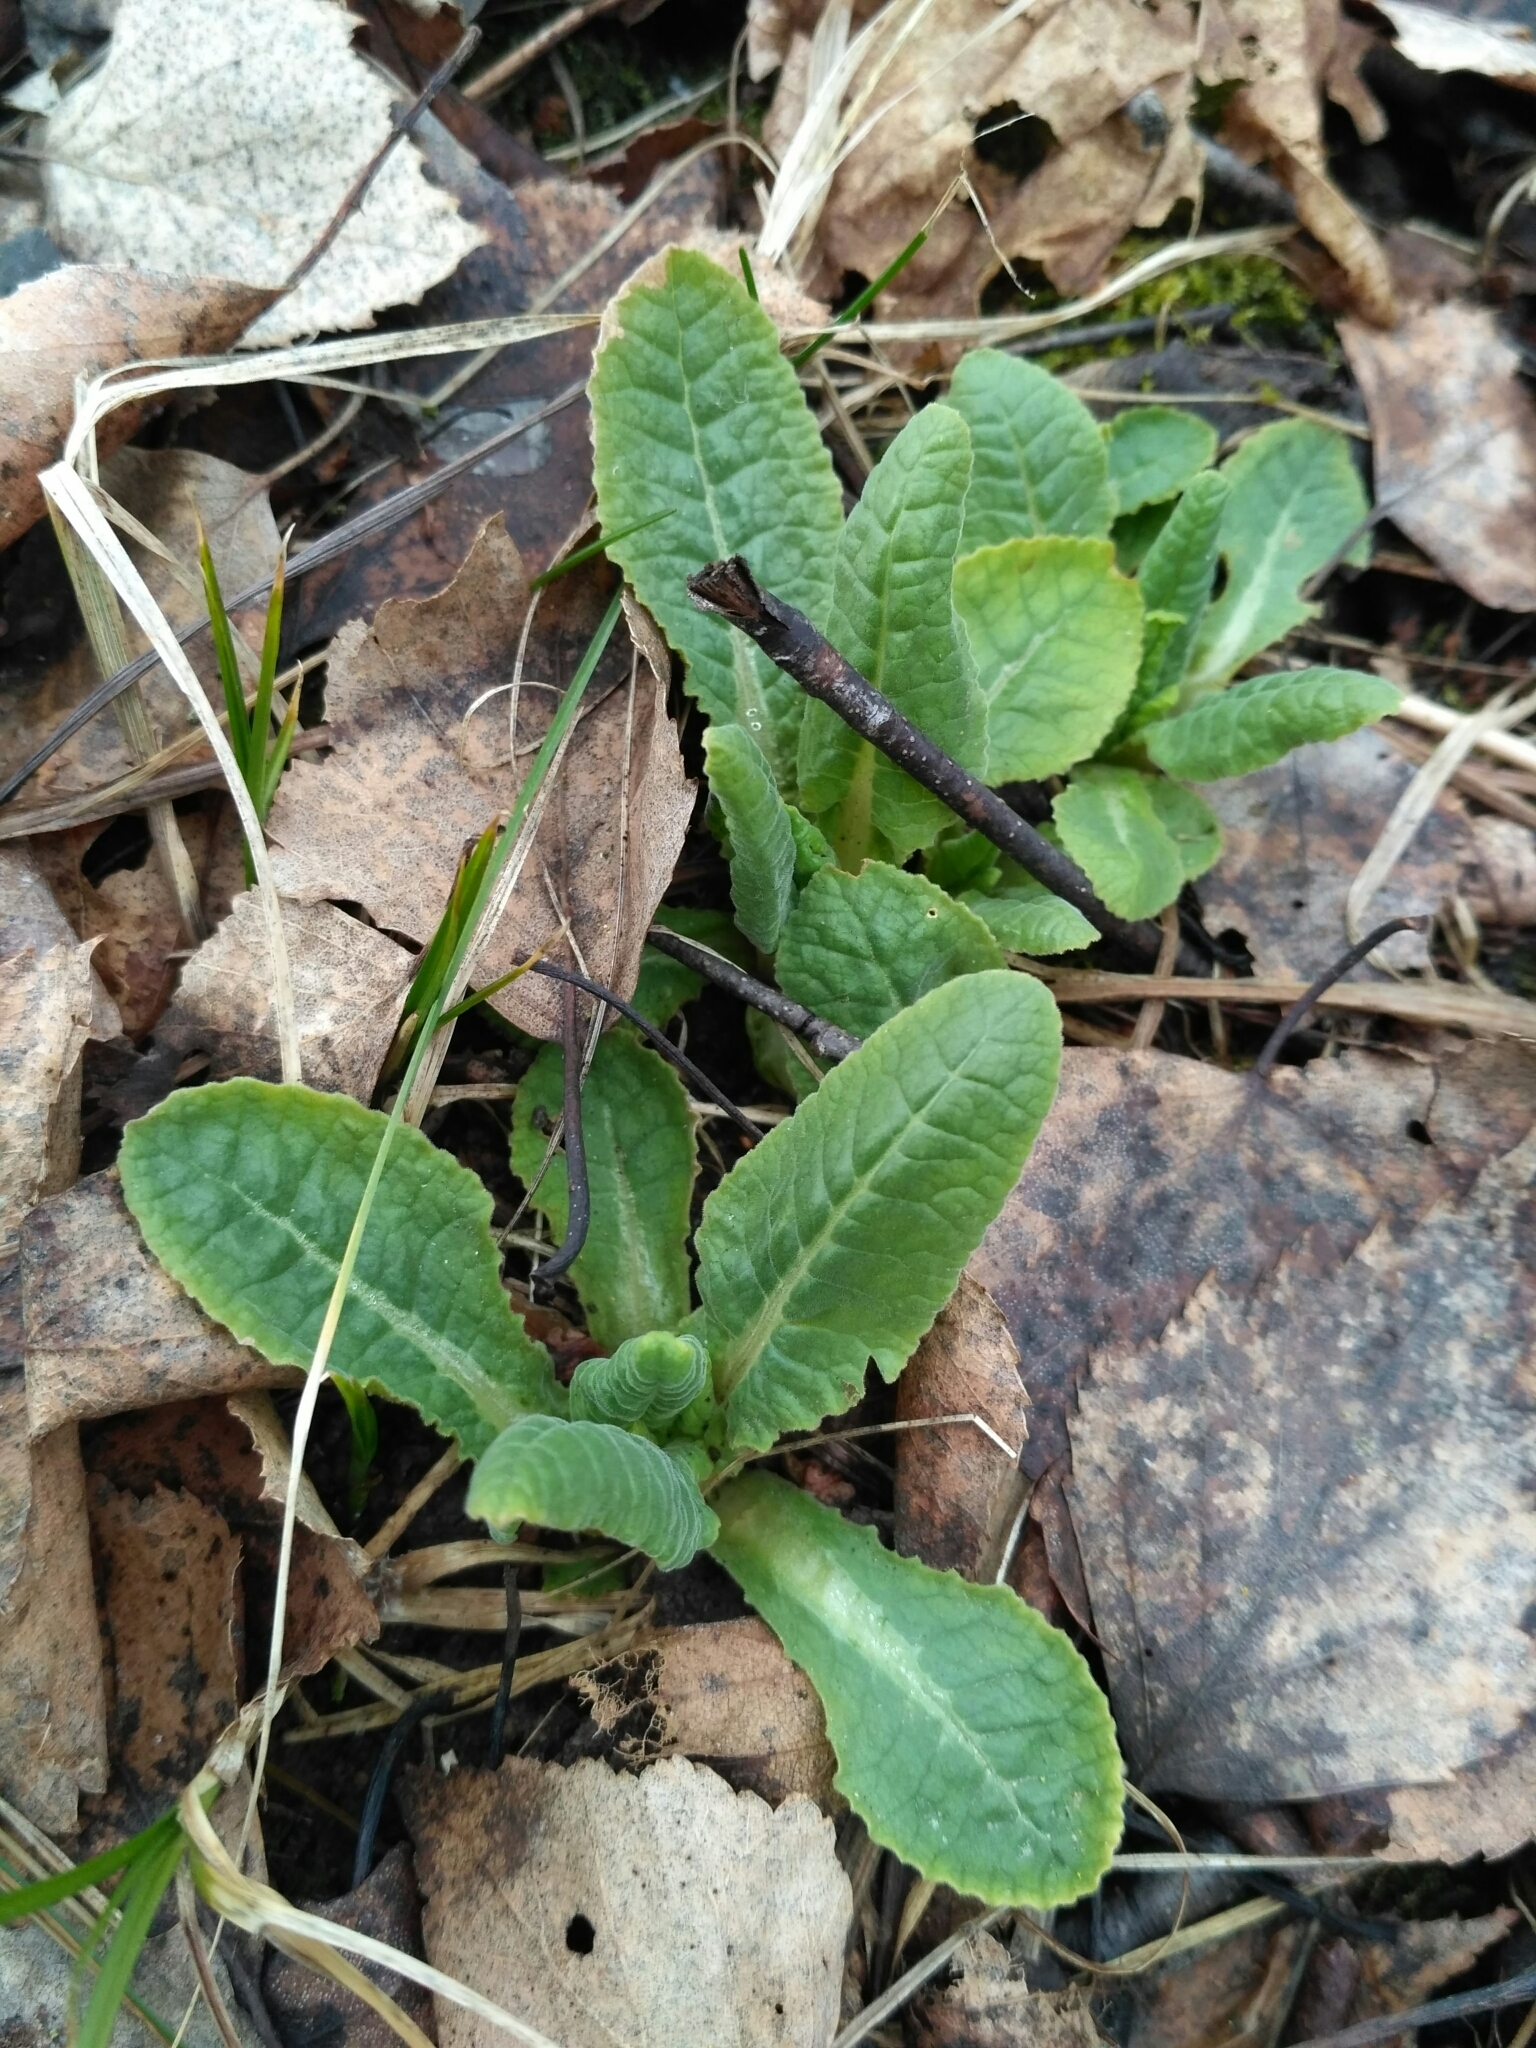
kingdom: Plantae
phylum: Tracheophyta
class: Magnoliopsida
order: Ericales
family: Primulaceae
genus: Primula
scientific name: Primula veris
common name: Cowslip
